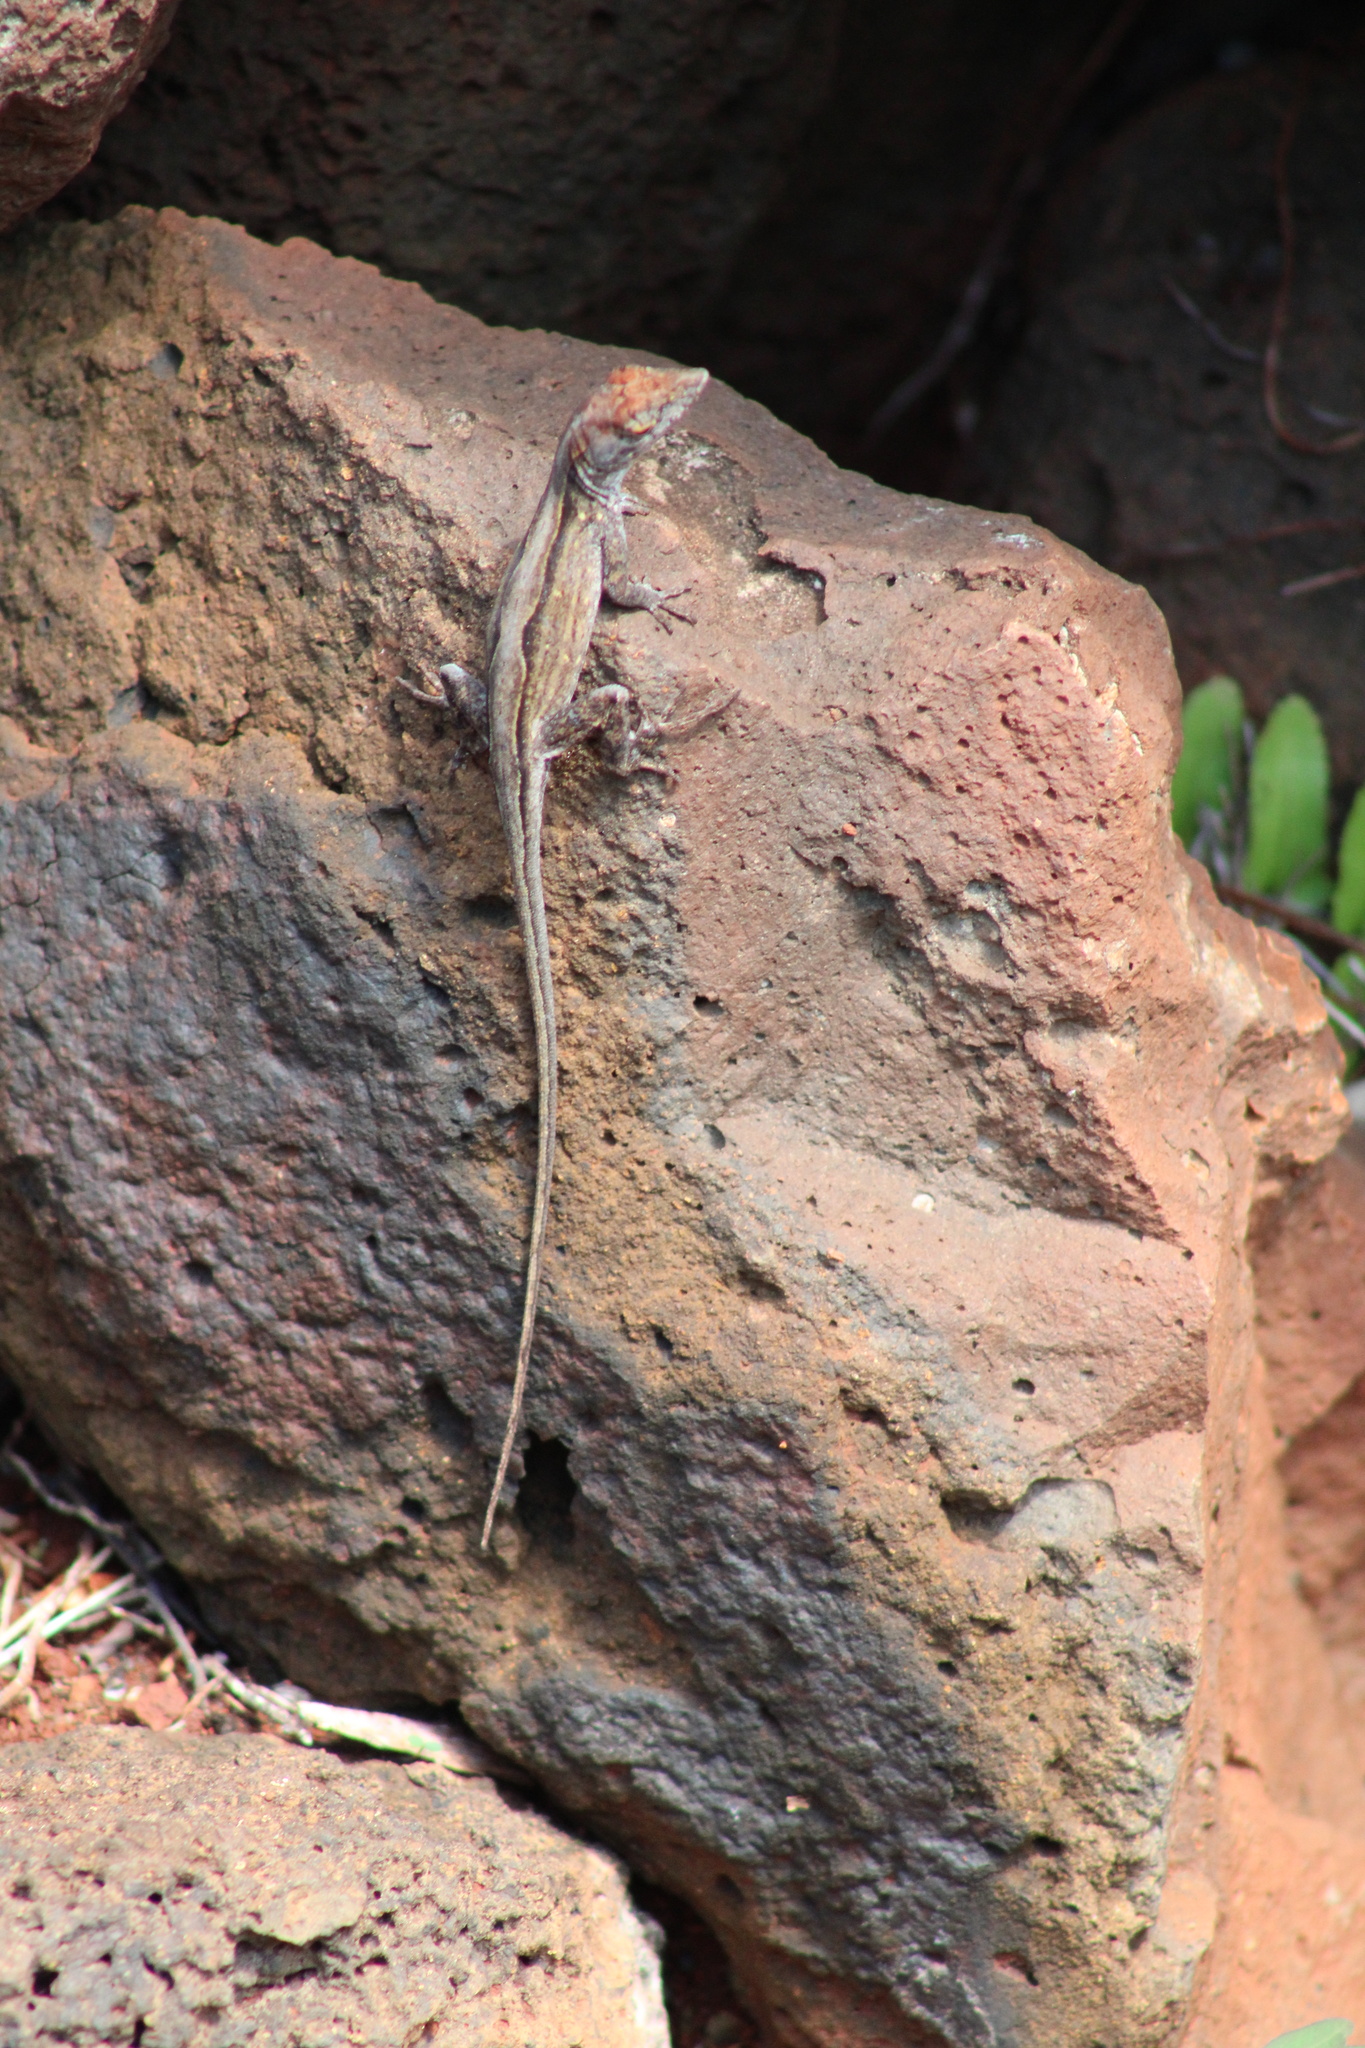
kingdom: Animalia
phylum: Chordata
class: Squamata
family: Dactyloidae
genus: Anolis
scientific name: Anolis sagrei
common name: Brown anole
